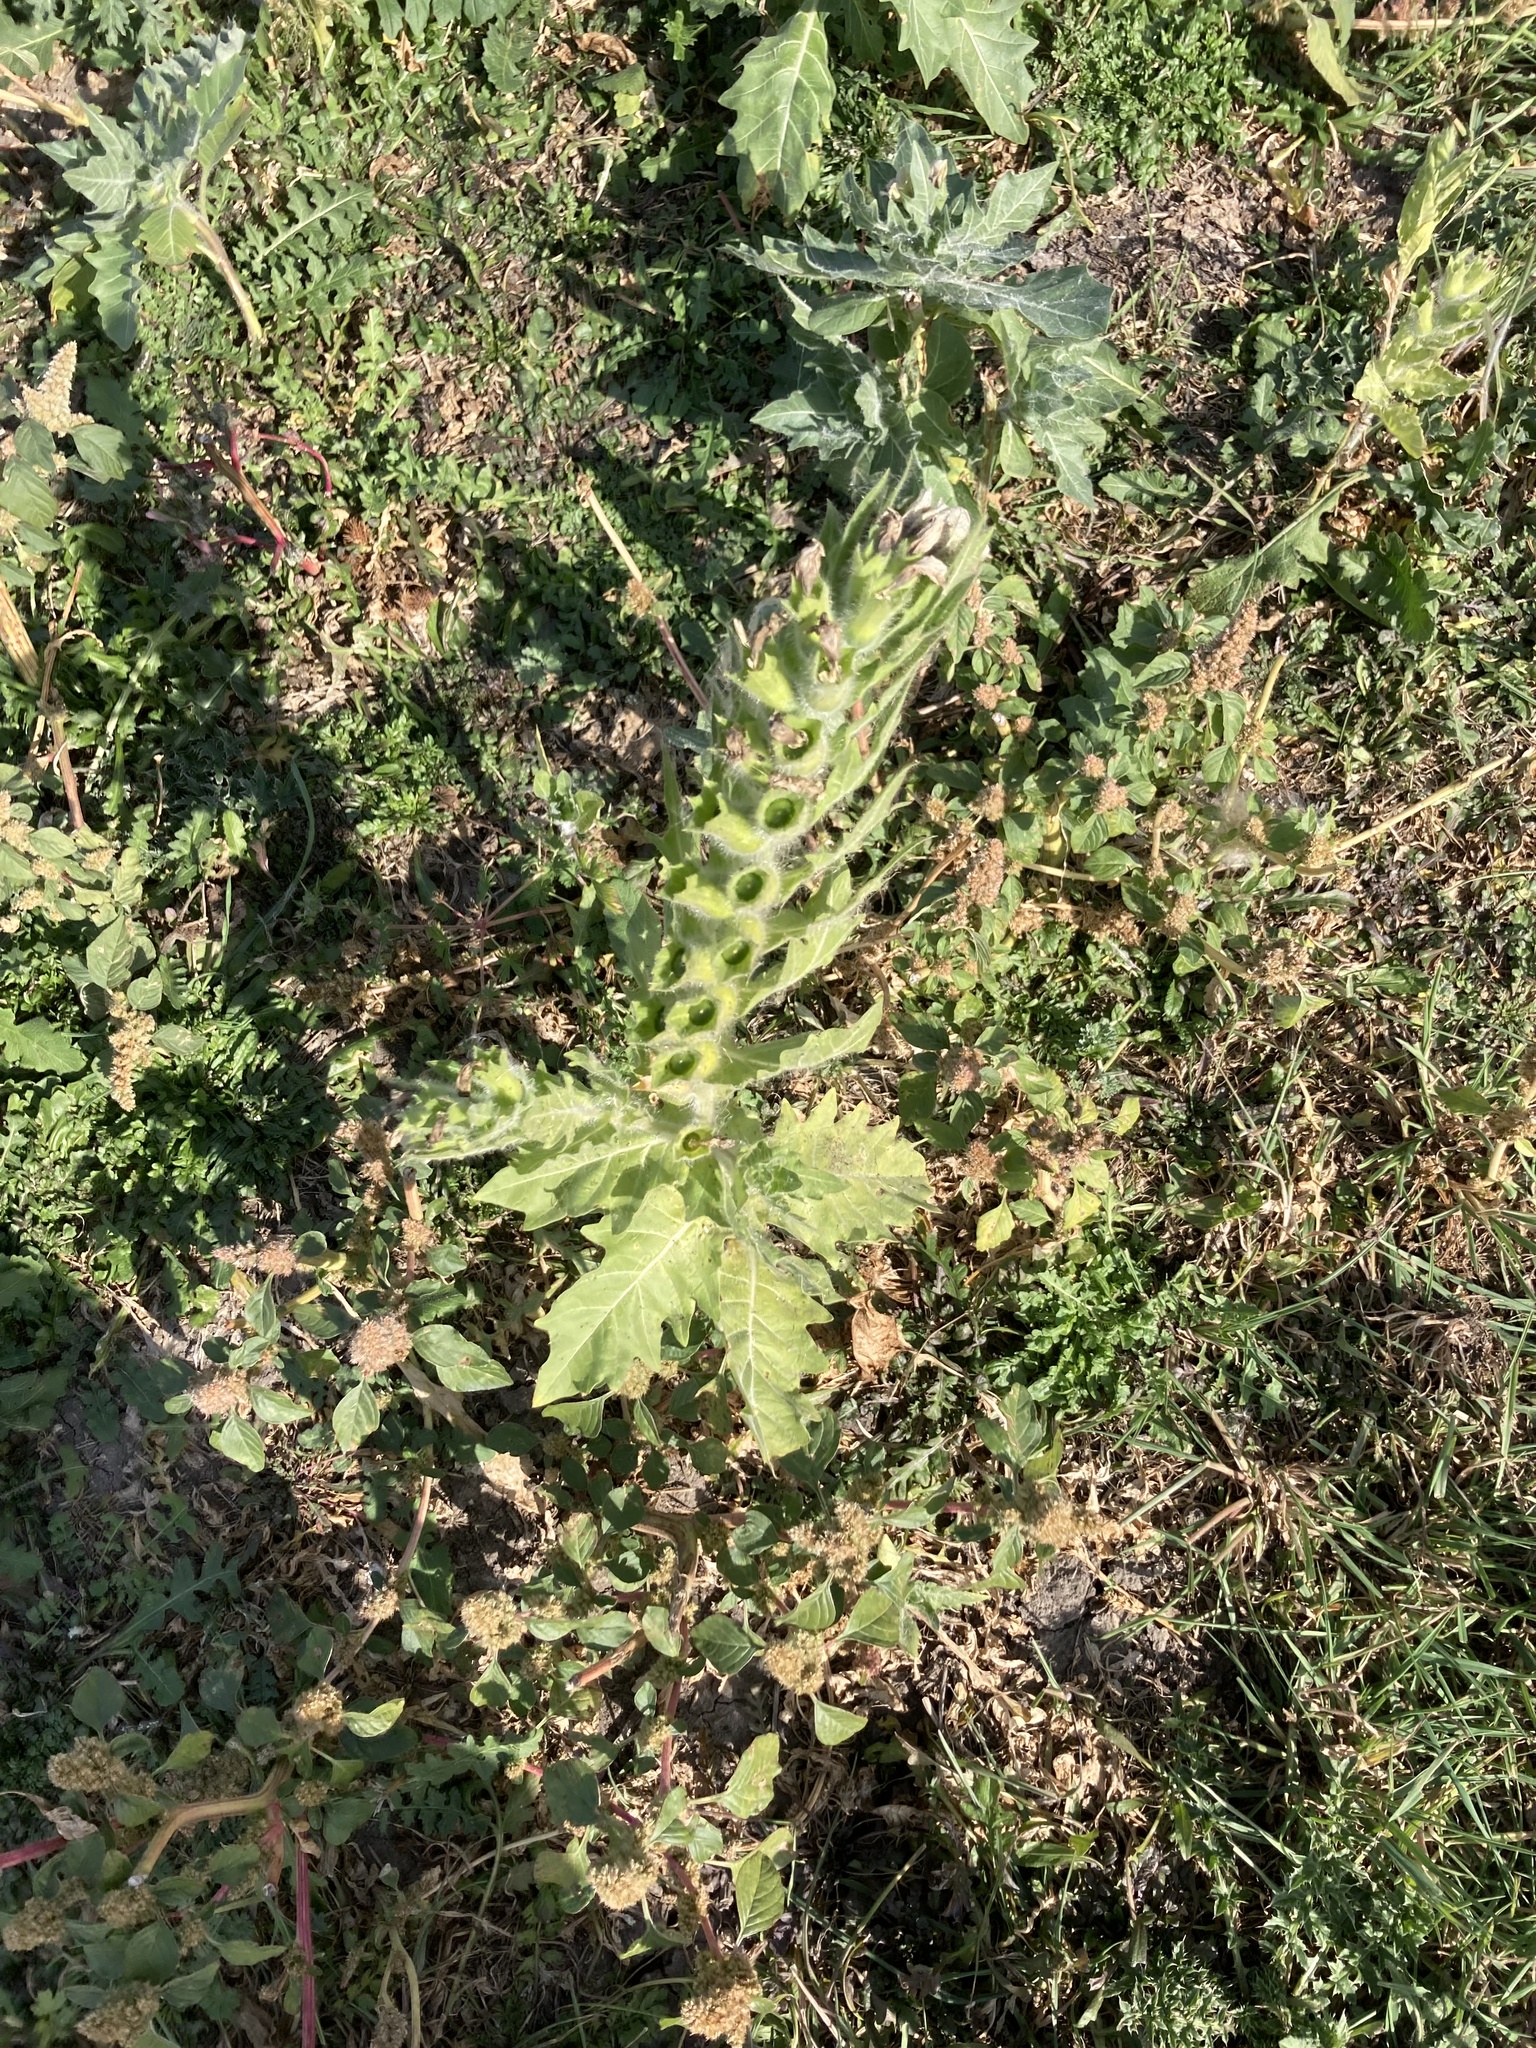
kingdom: Plantae
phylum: Tracheophyta
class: Magnoliopsida
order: Solanales
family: Solanaceae
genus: Hyoscyamus
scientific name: Hyoscyamus niger
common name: Henbane
